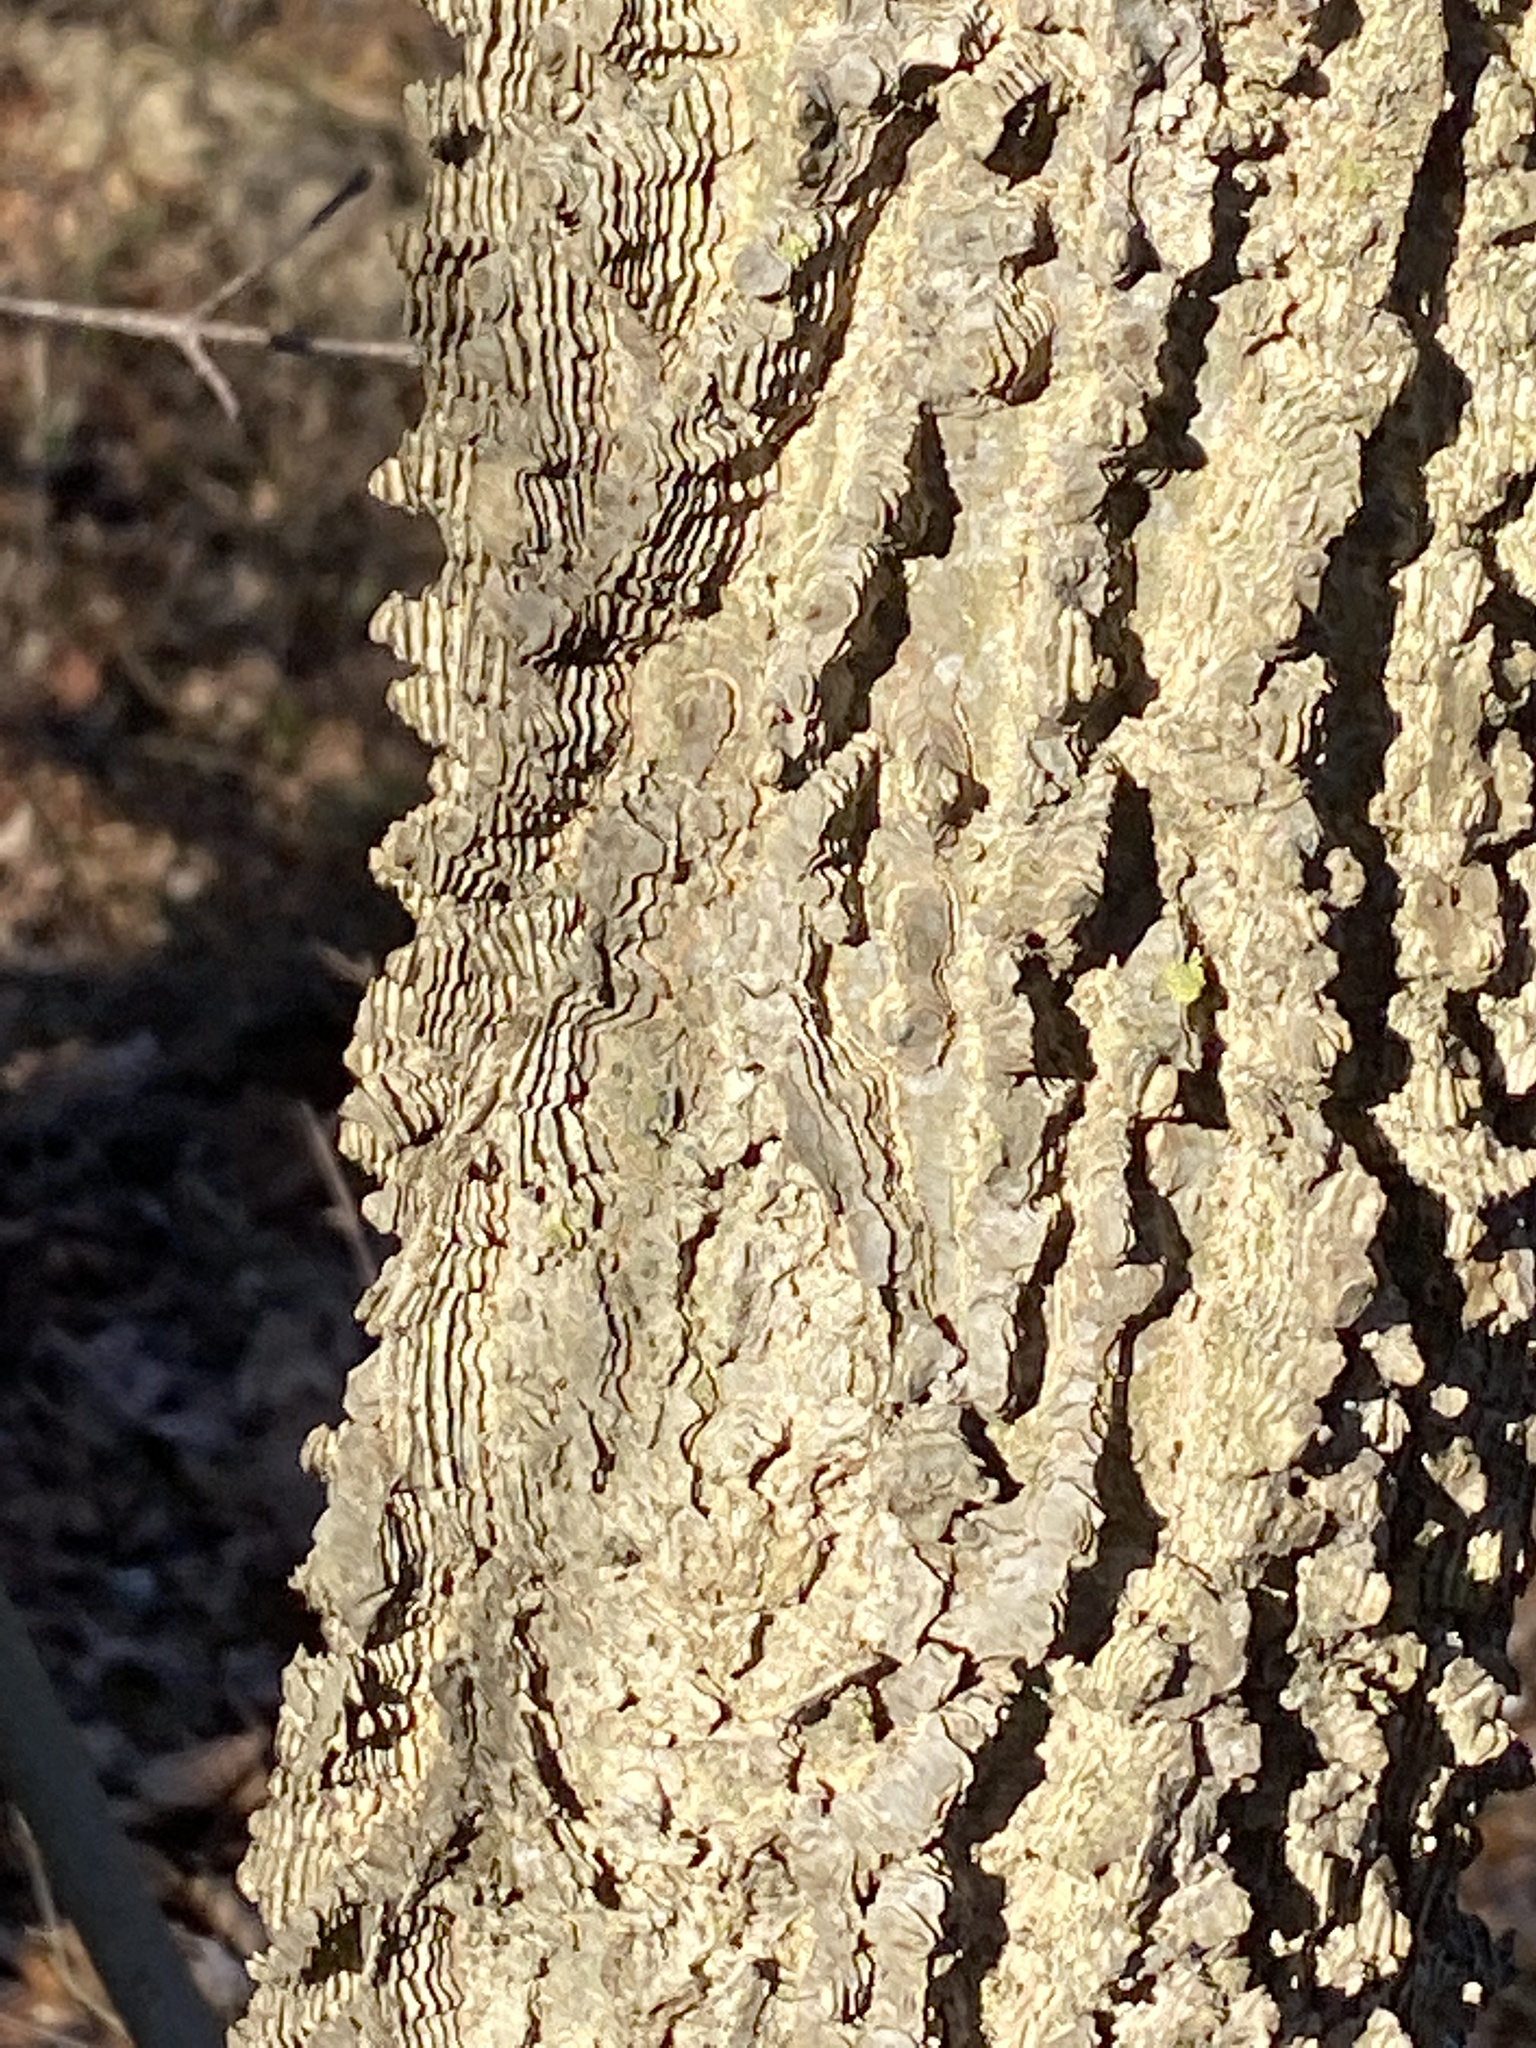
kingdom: Plantae
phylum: Tracheophyta
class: Magnoliopsida
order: Rosales
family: Cannabaceae
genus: Celtis
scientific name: Celtis occidentalis
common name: Common hackberry
